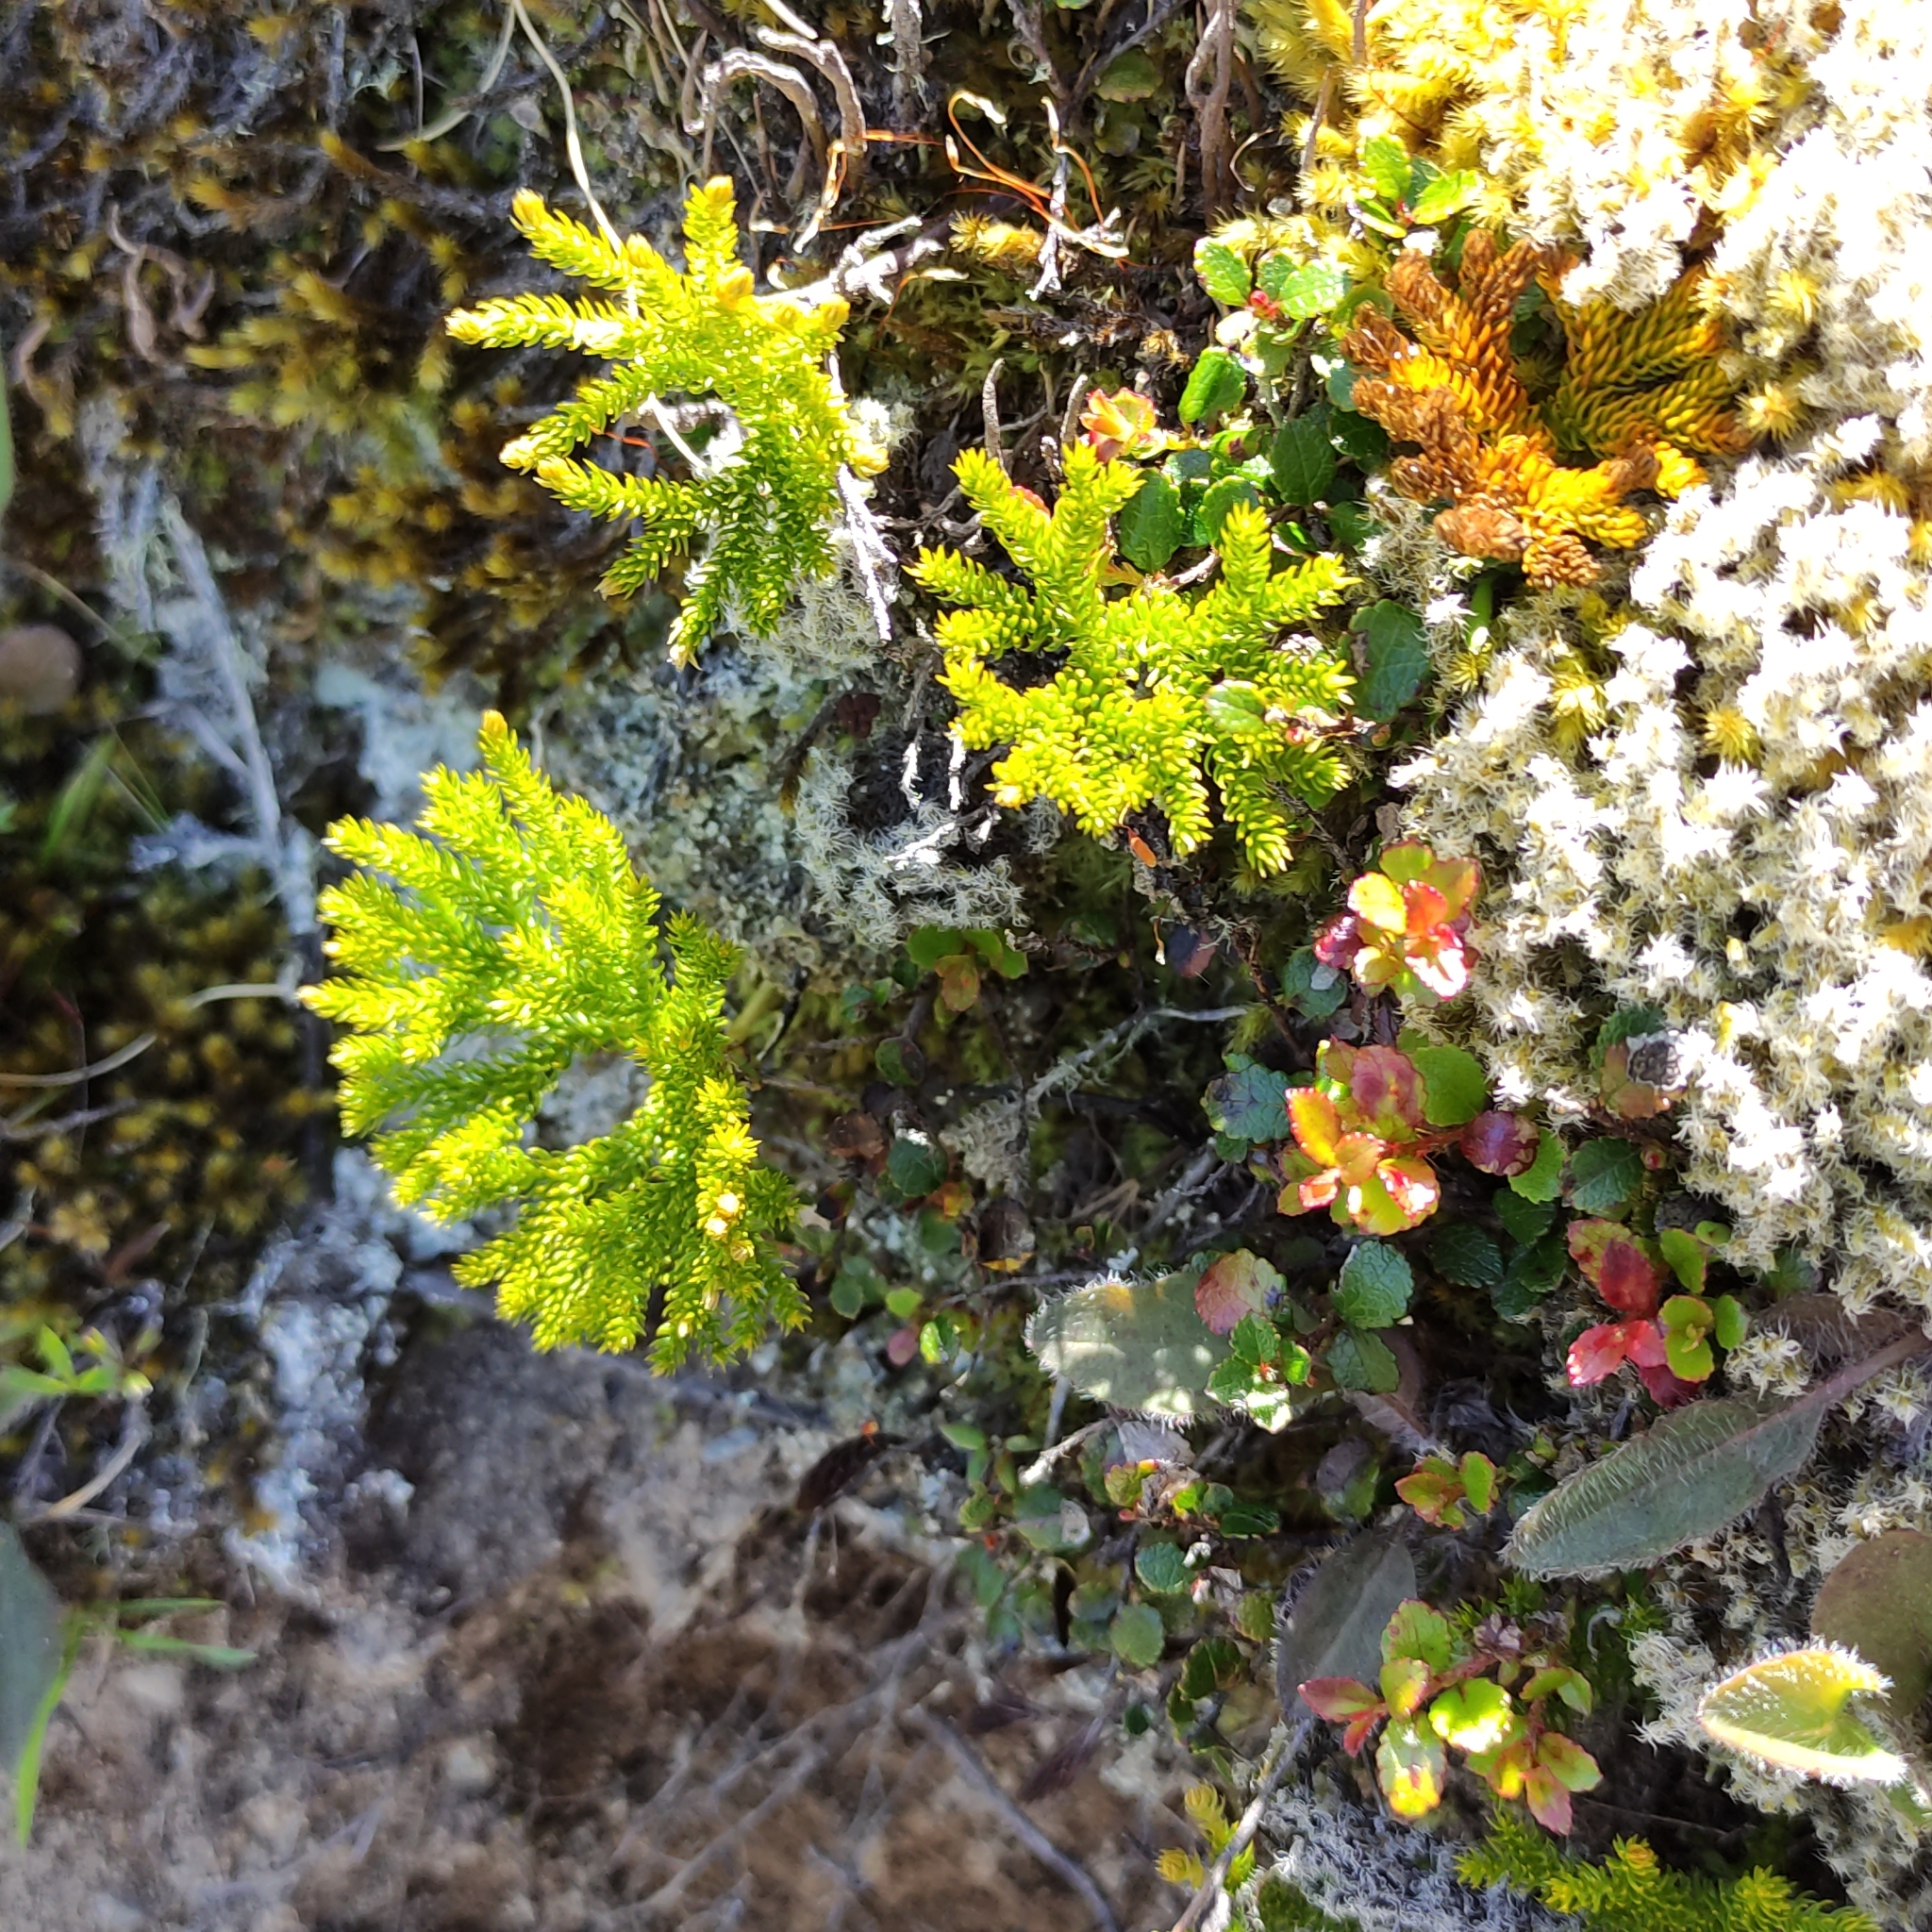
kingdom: Plantae
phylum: Tracheophyta
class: Lycopodiopsida
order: Lycopodiales
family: Lycopodiaceae
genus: Austrolycopodium
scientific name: Austrolycopodium fastigiatum
